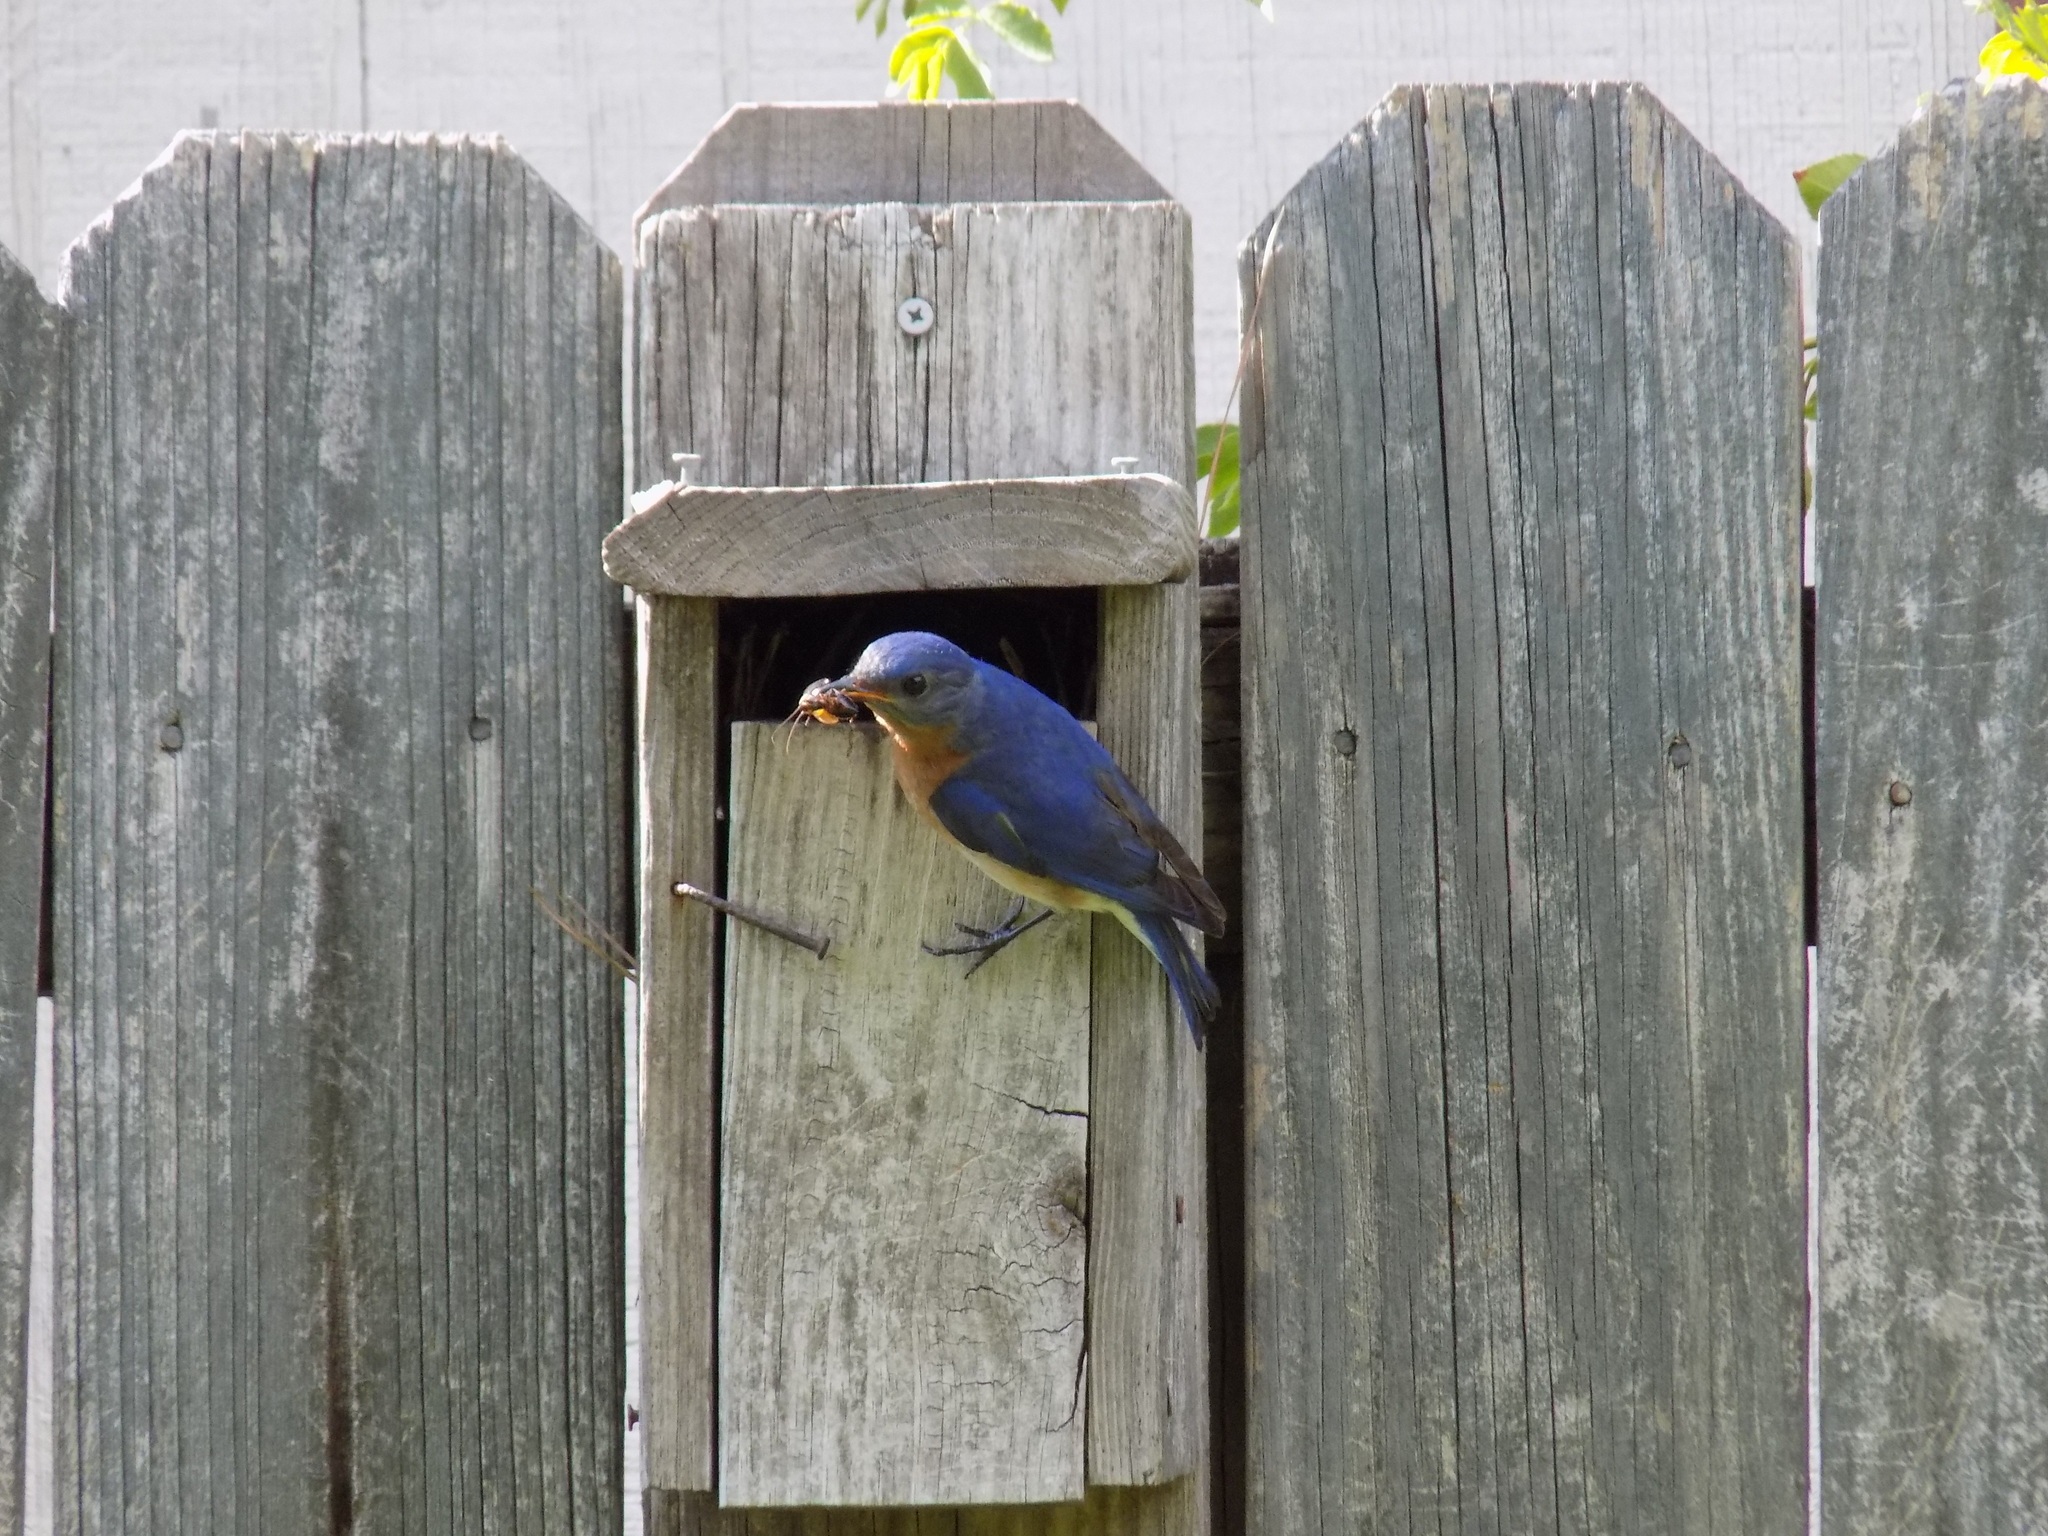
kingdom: Animalia
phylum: Chordata
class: Aves
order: Passeriformes
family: Turdidae
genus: Sialia
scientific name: Sialia sialis
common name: Eastern bluebird
